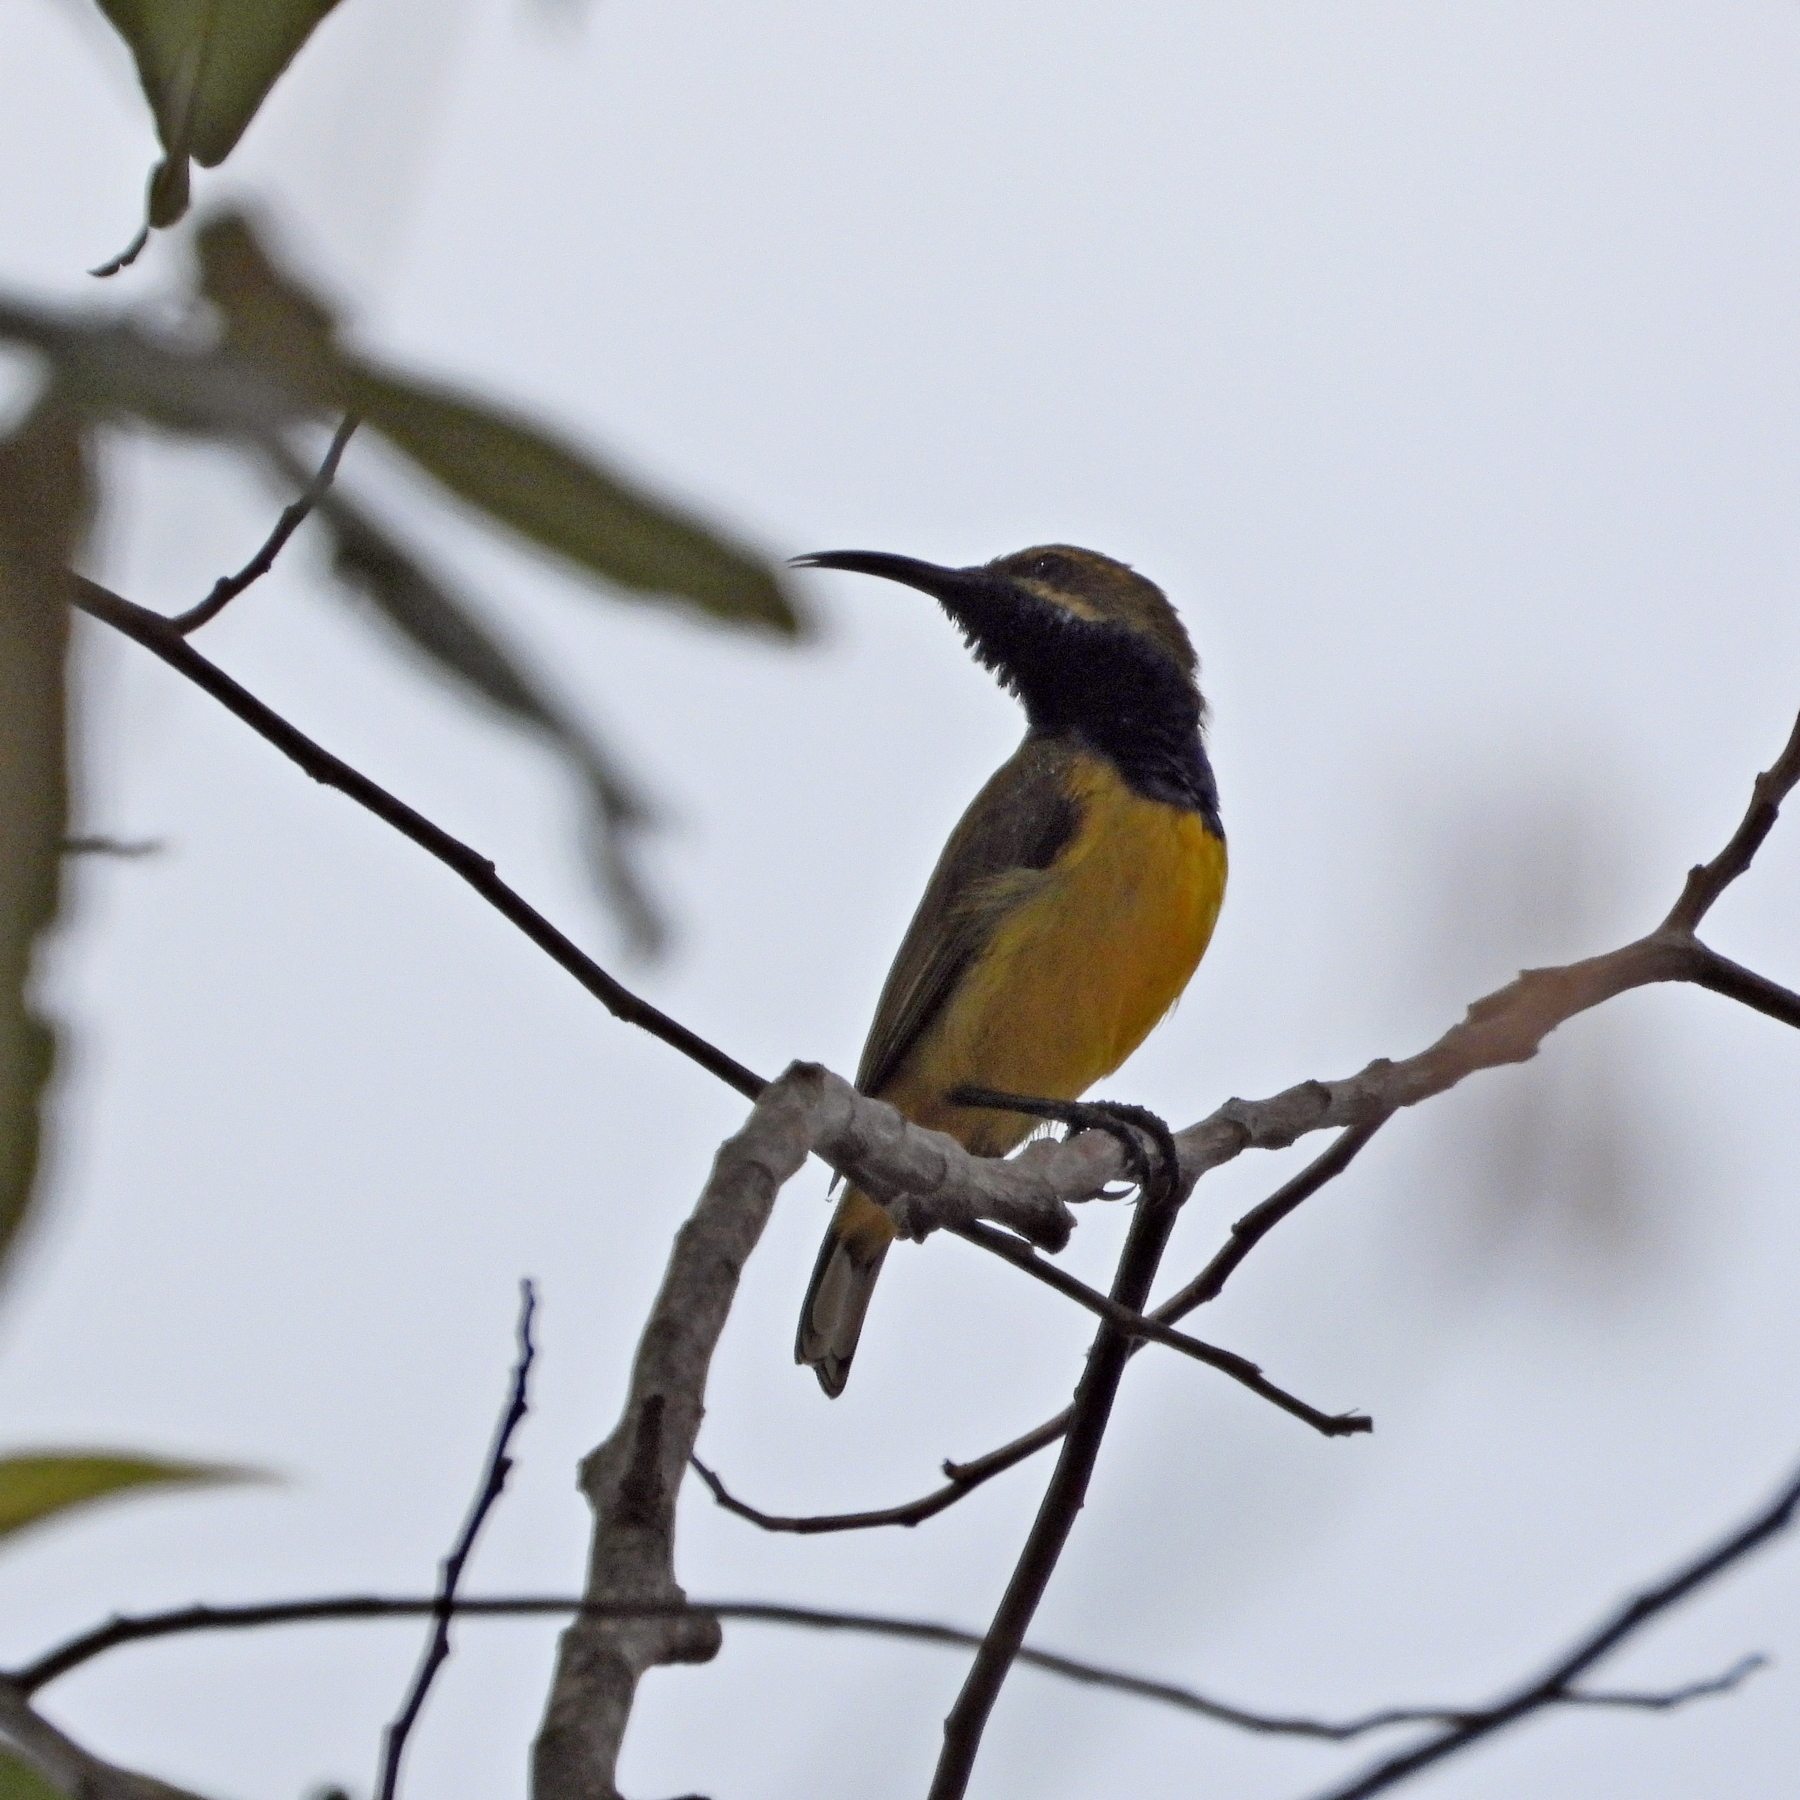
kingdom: Animalia
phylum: Chordata
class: Aves
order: Passeriformes
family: Nectariniidae
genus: Cinnyris
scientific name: Cinnyris
